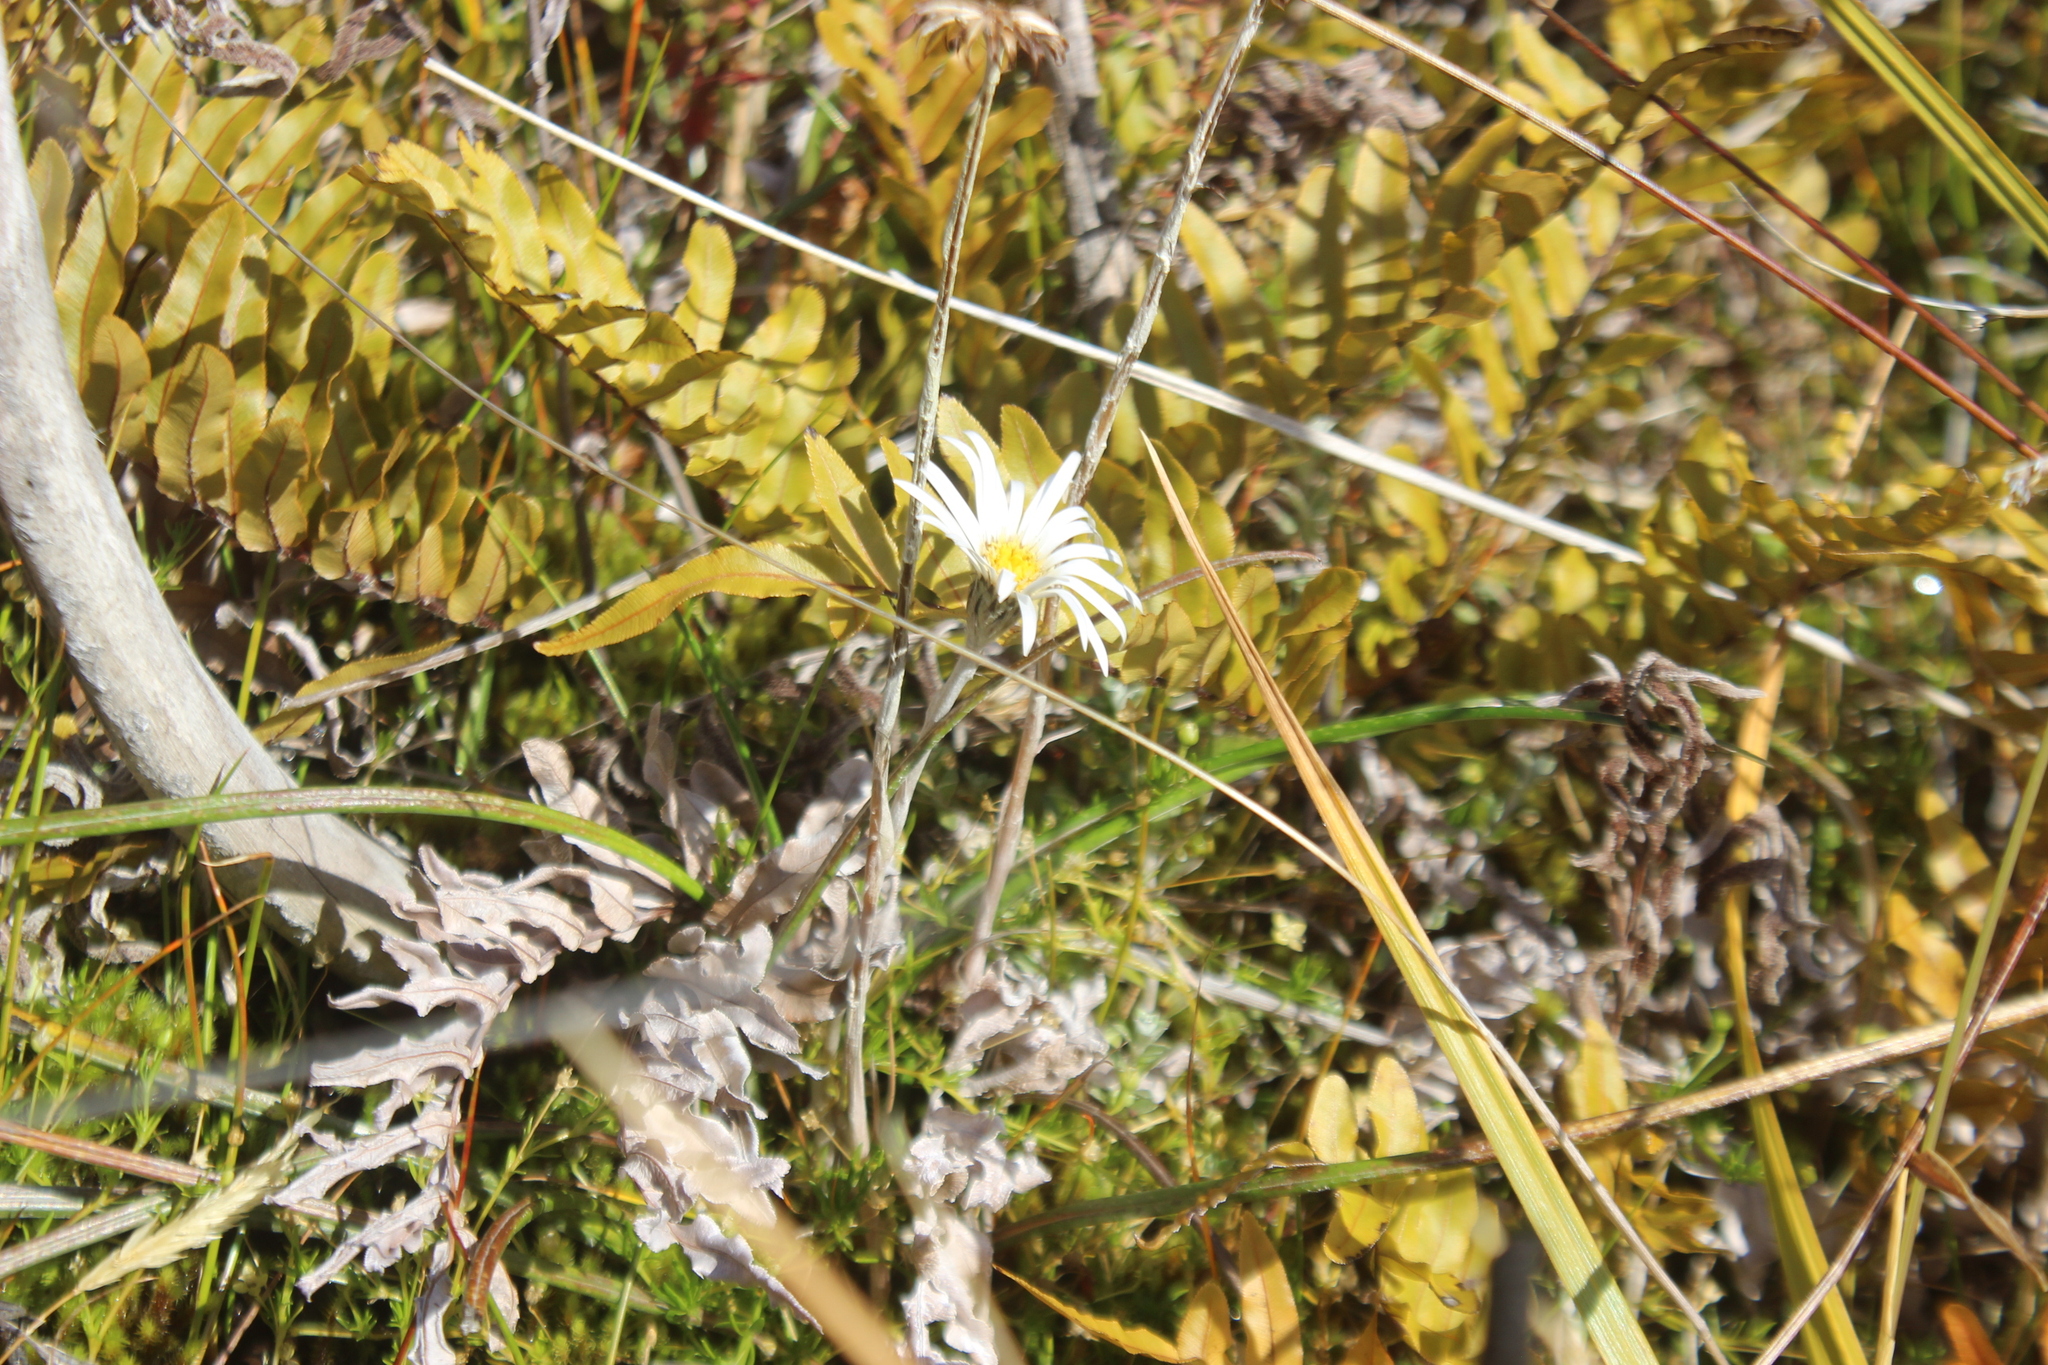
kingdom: Plantae
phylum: Tracheophyta
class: Magnoliopsida
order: Asterales
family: Asteraceae
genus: Celmisia
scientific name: Celmisia gracilenta
